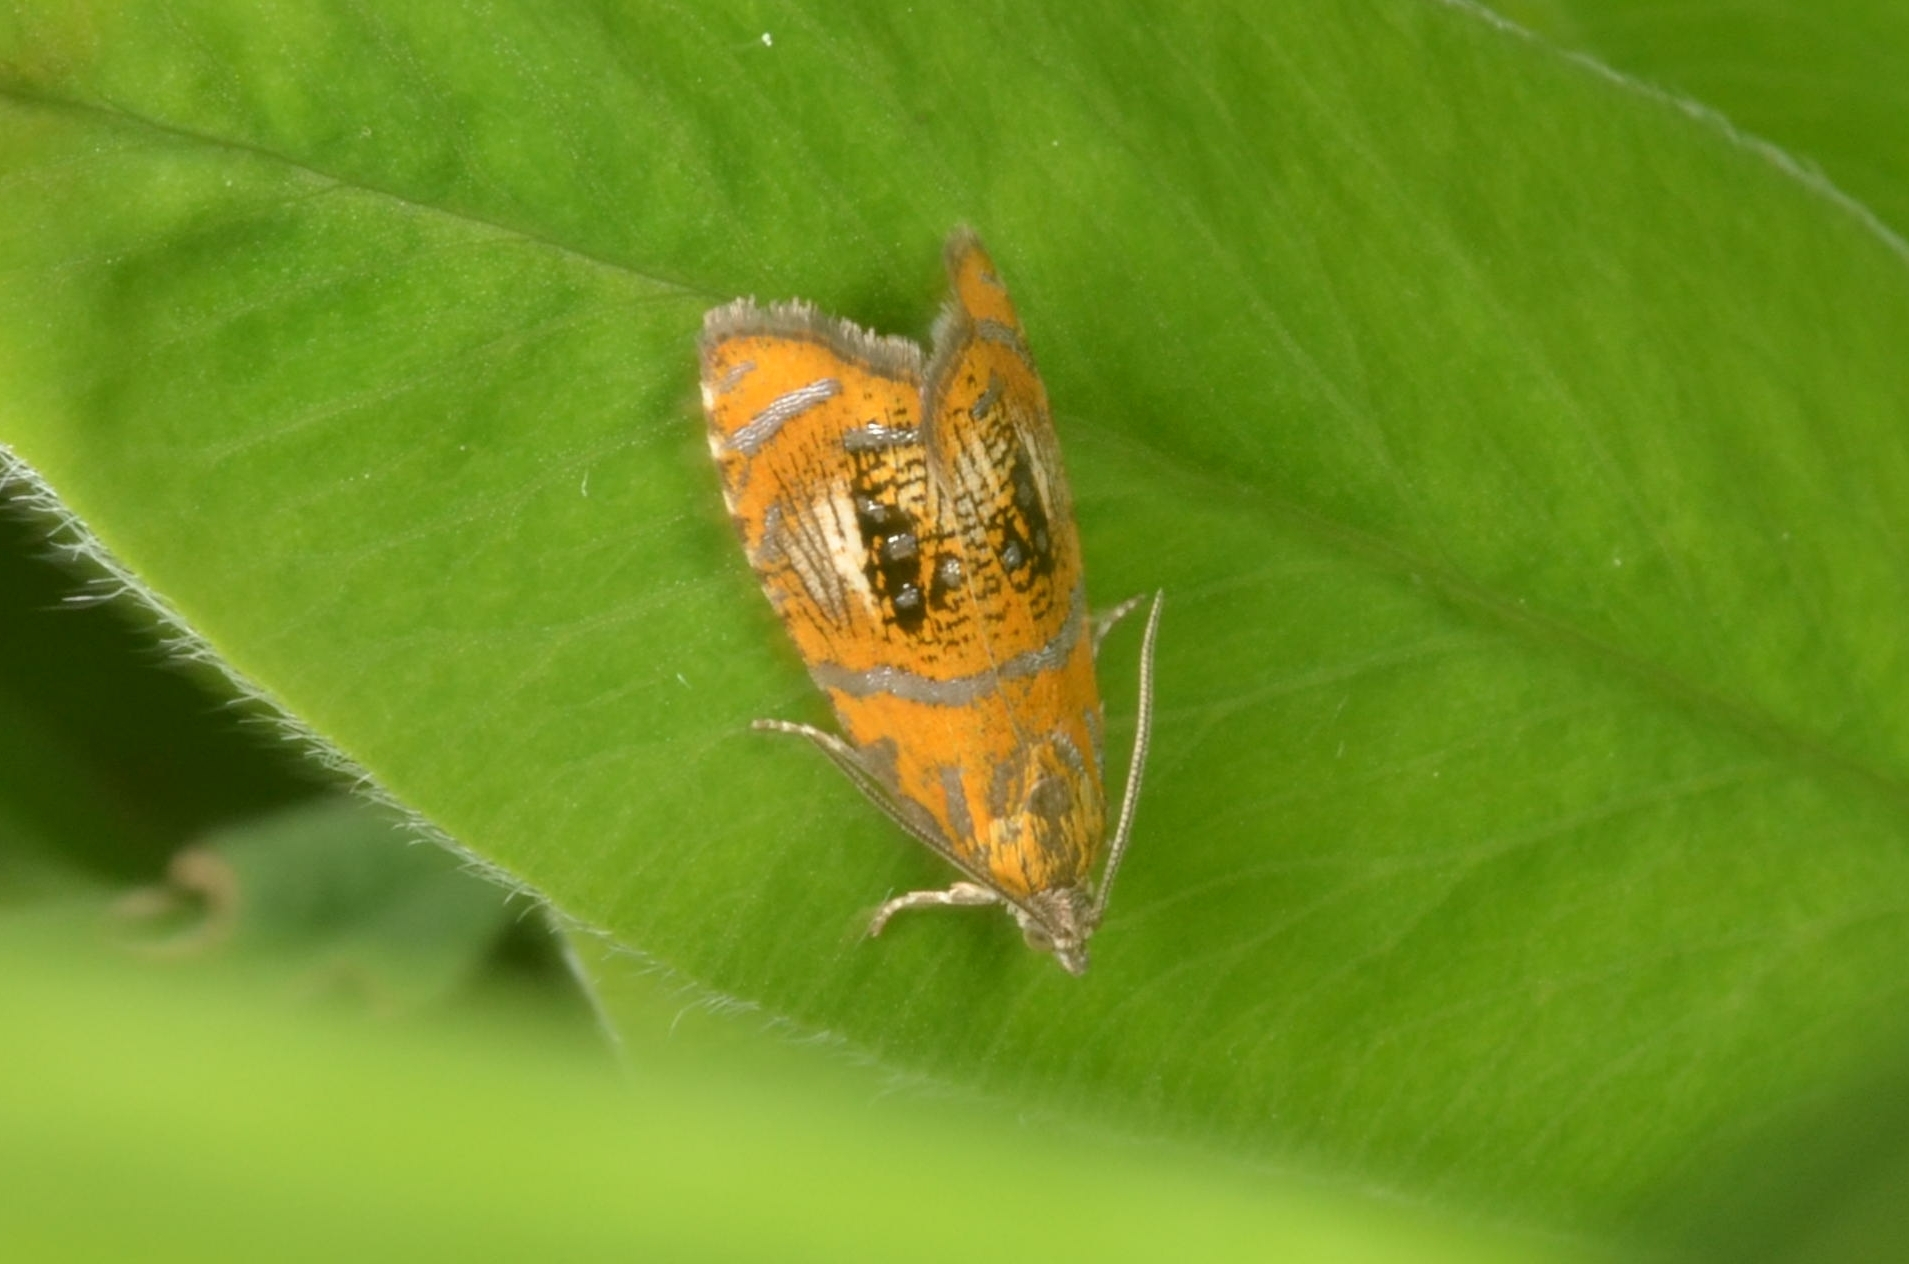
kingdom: Animalia
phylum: Arthropoda
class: Insecta
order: Lepidoptera
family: Tortricidae
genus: Olethreutes
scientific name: Olethreutes arcuella
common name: Arched marble
